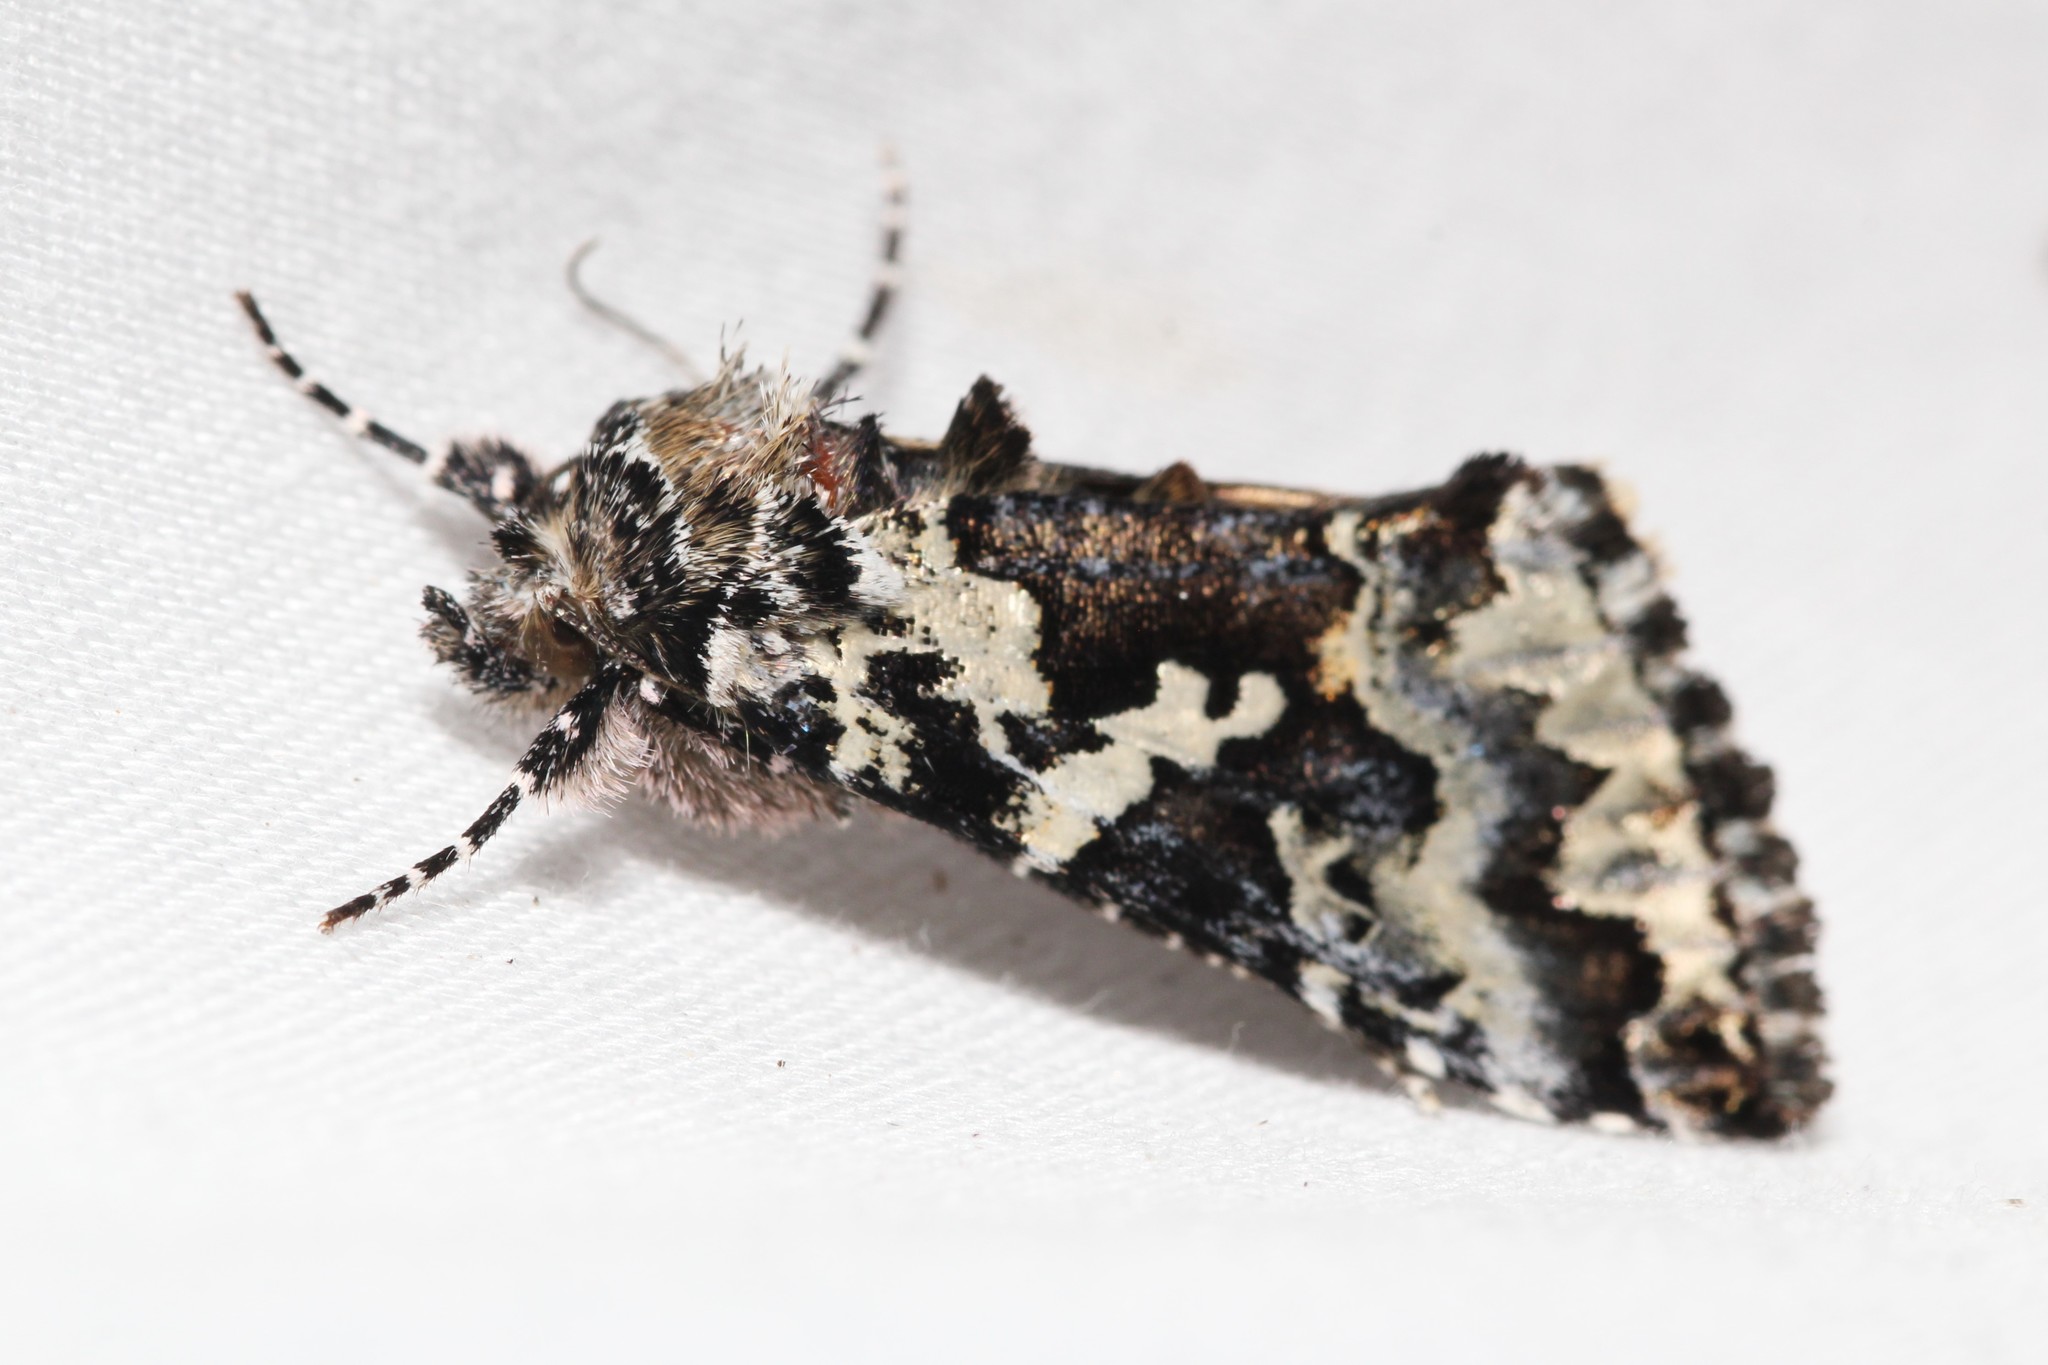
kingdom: Animalia
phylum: Arthropoda
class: Insecta
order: Lepidoptera
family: Noctuidae
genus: Syngrapha
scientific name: Syngrapha rectangula
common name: Angulated cutworm
